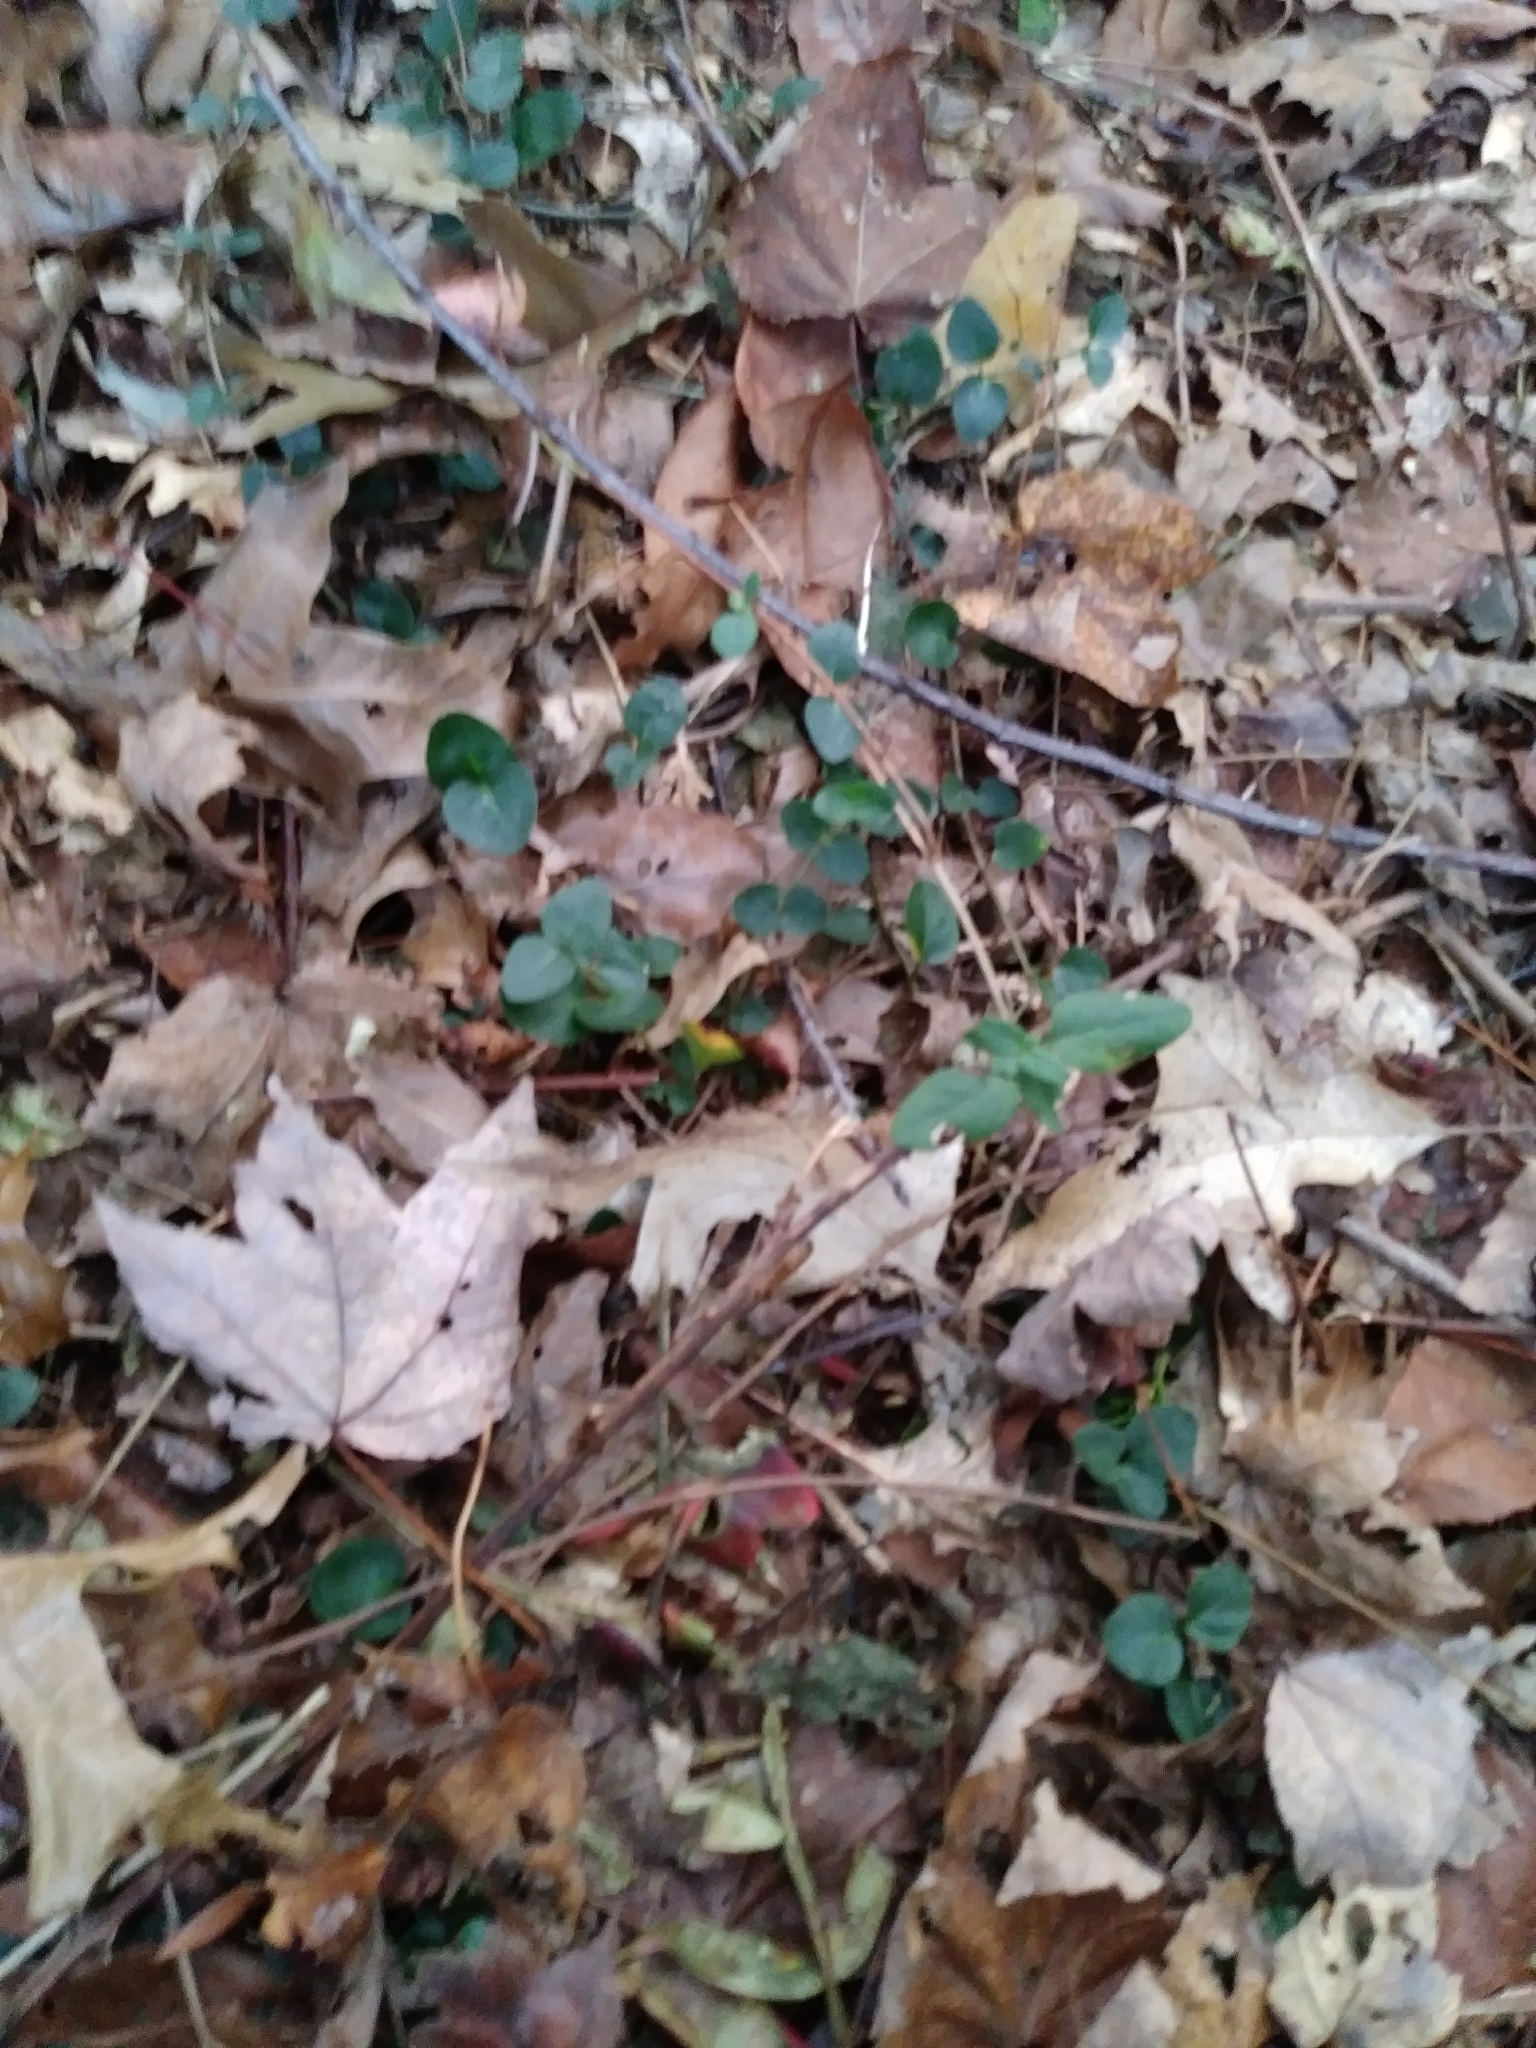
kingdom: Plantae
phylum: Tracheophyta
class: Magnoliopsida
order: Gentianales
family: Rubiaceae
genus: Mitchella
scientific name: Mitchella repens
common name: Partridge-berry
